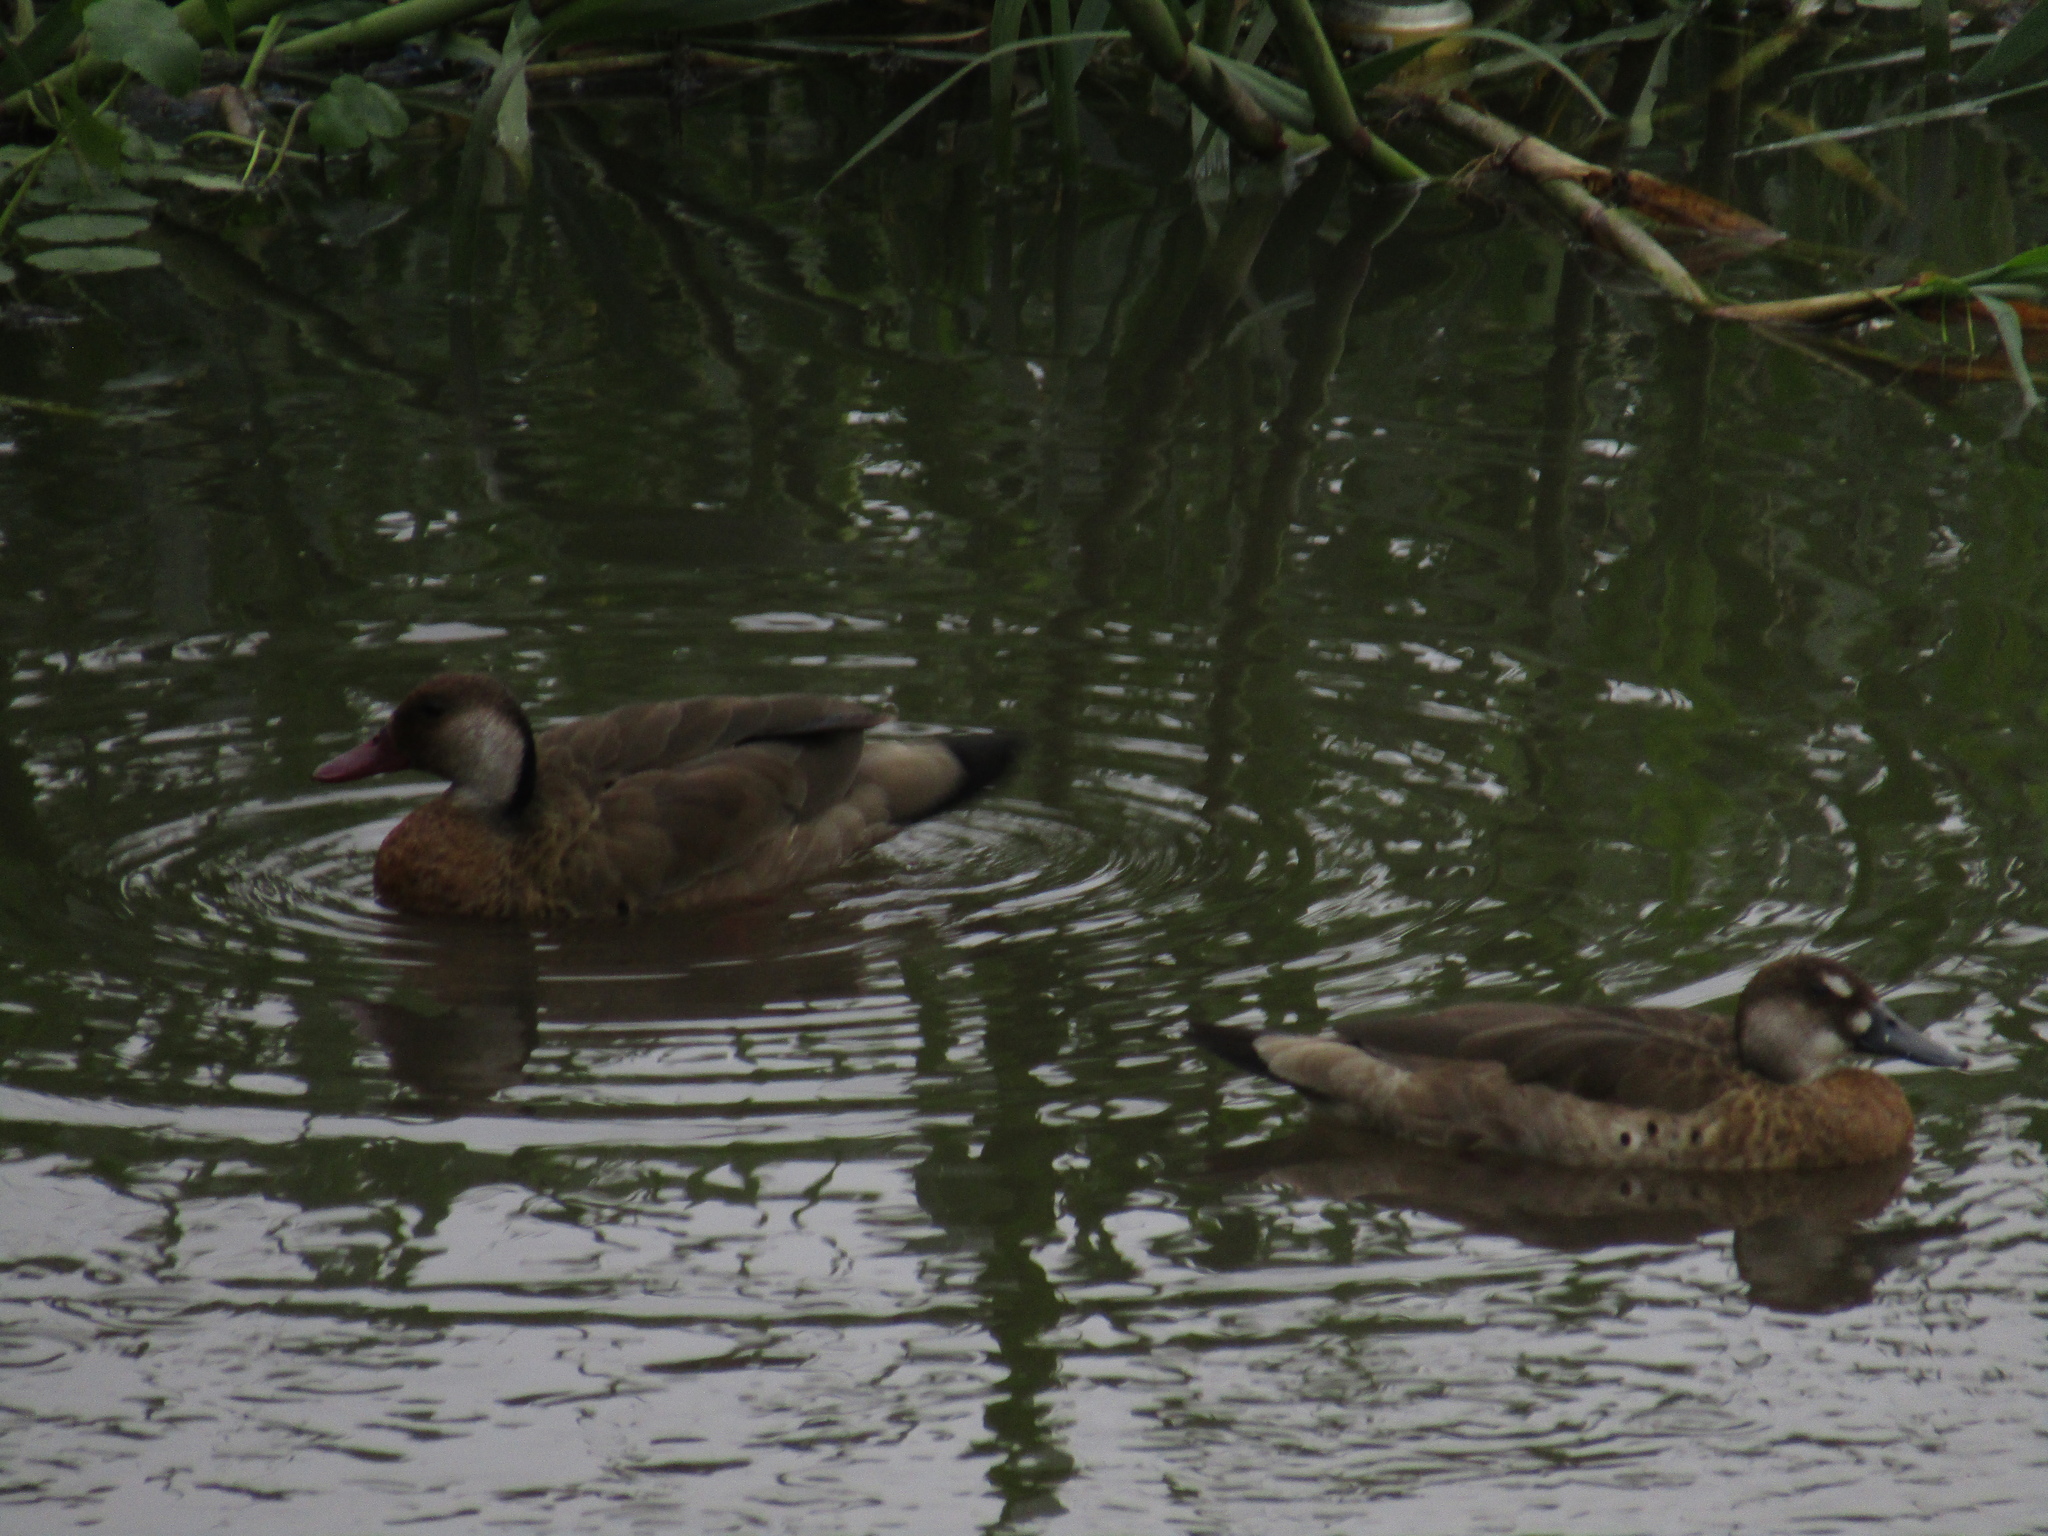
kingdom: Animalia
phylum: Chordata
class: Aves
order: Anseriformes
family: Anatidae
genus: Amazonetta
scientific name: Amazonetta brasiliensis
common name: Brazilian teal
